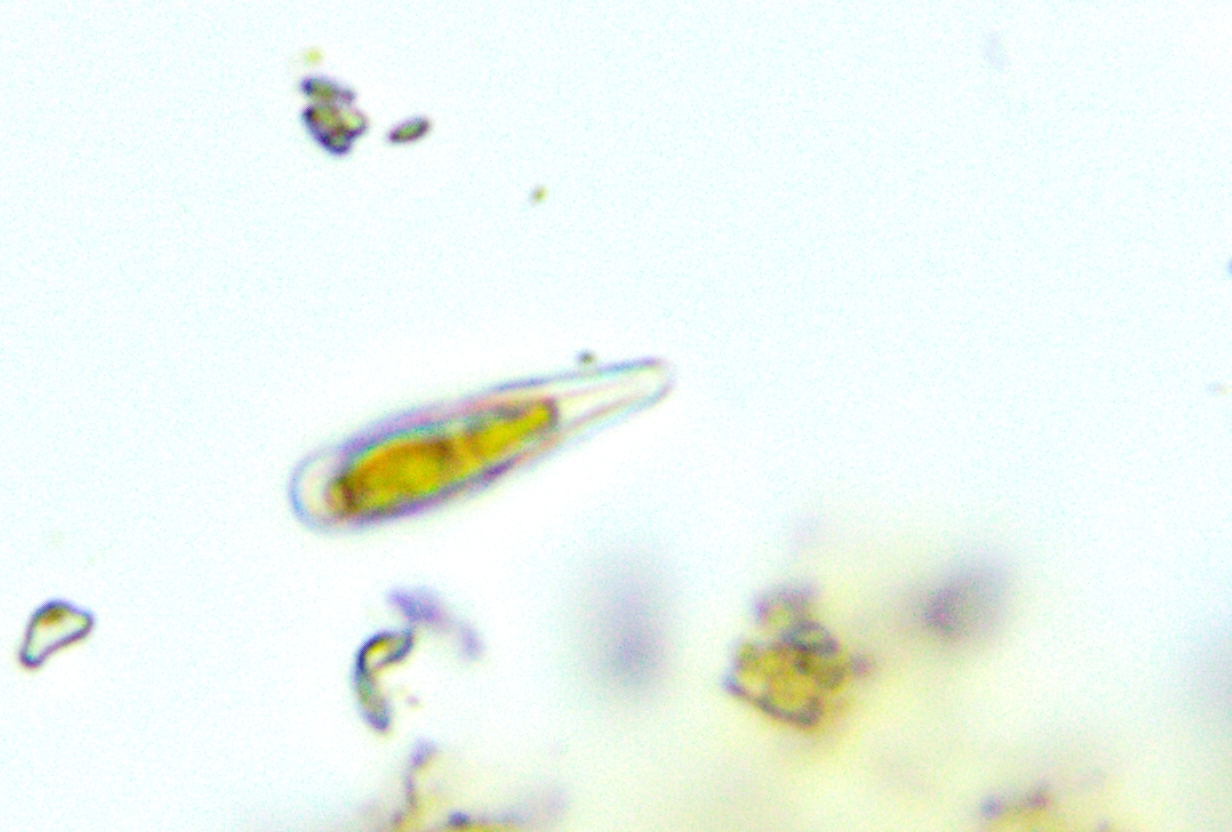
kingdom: Chromista
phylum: Ochrophyta
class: Bacillariophyceae
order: Fragilariales
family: Fragilariaceae
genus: Meridion
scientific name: Meridion constrictum
